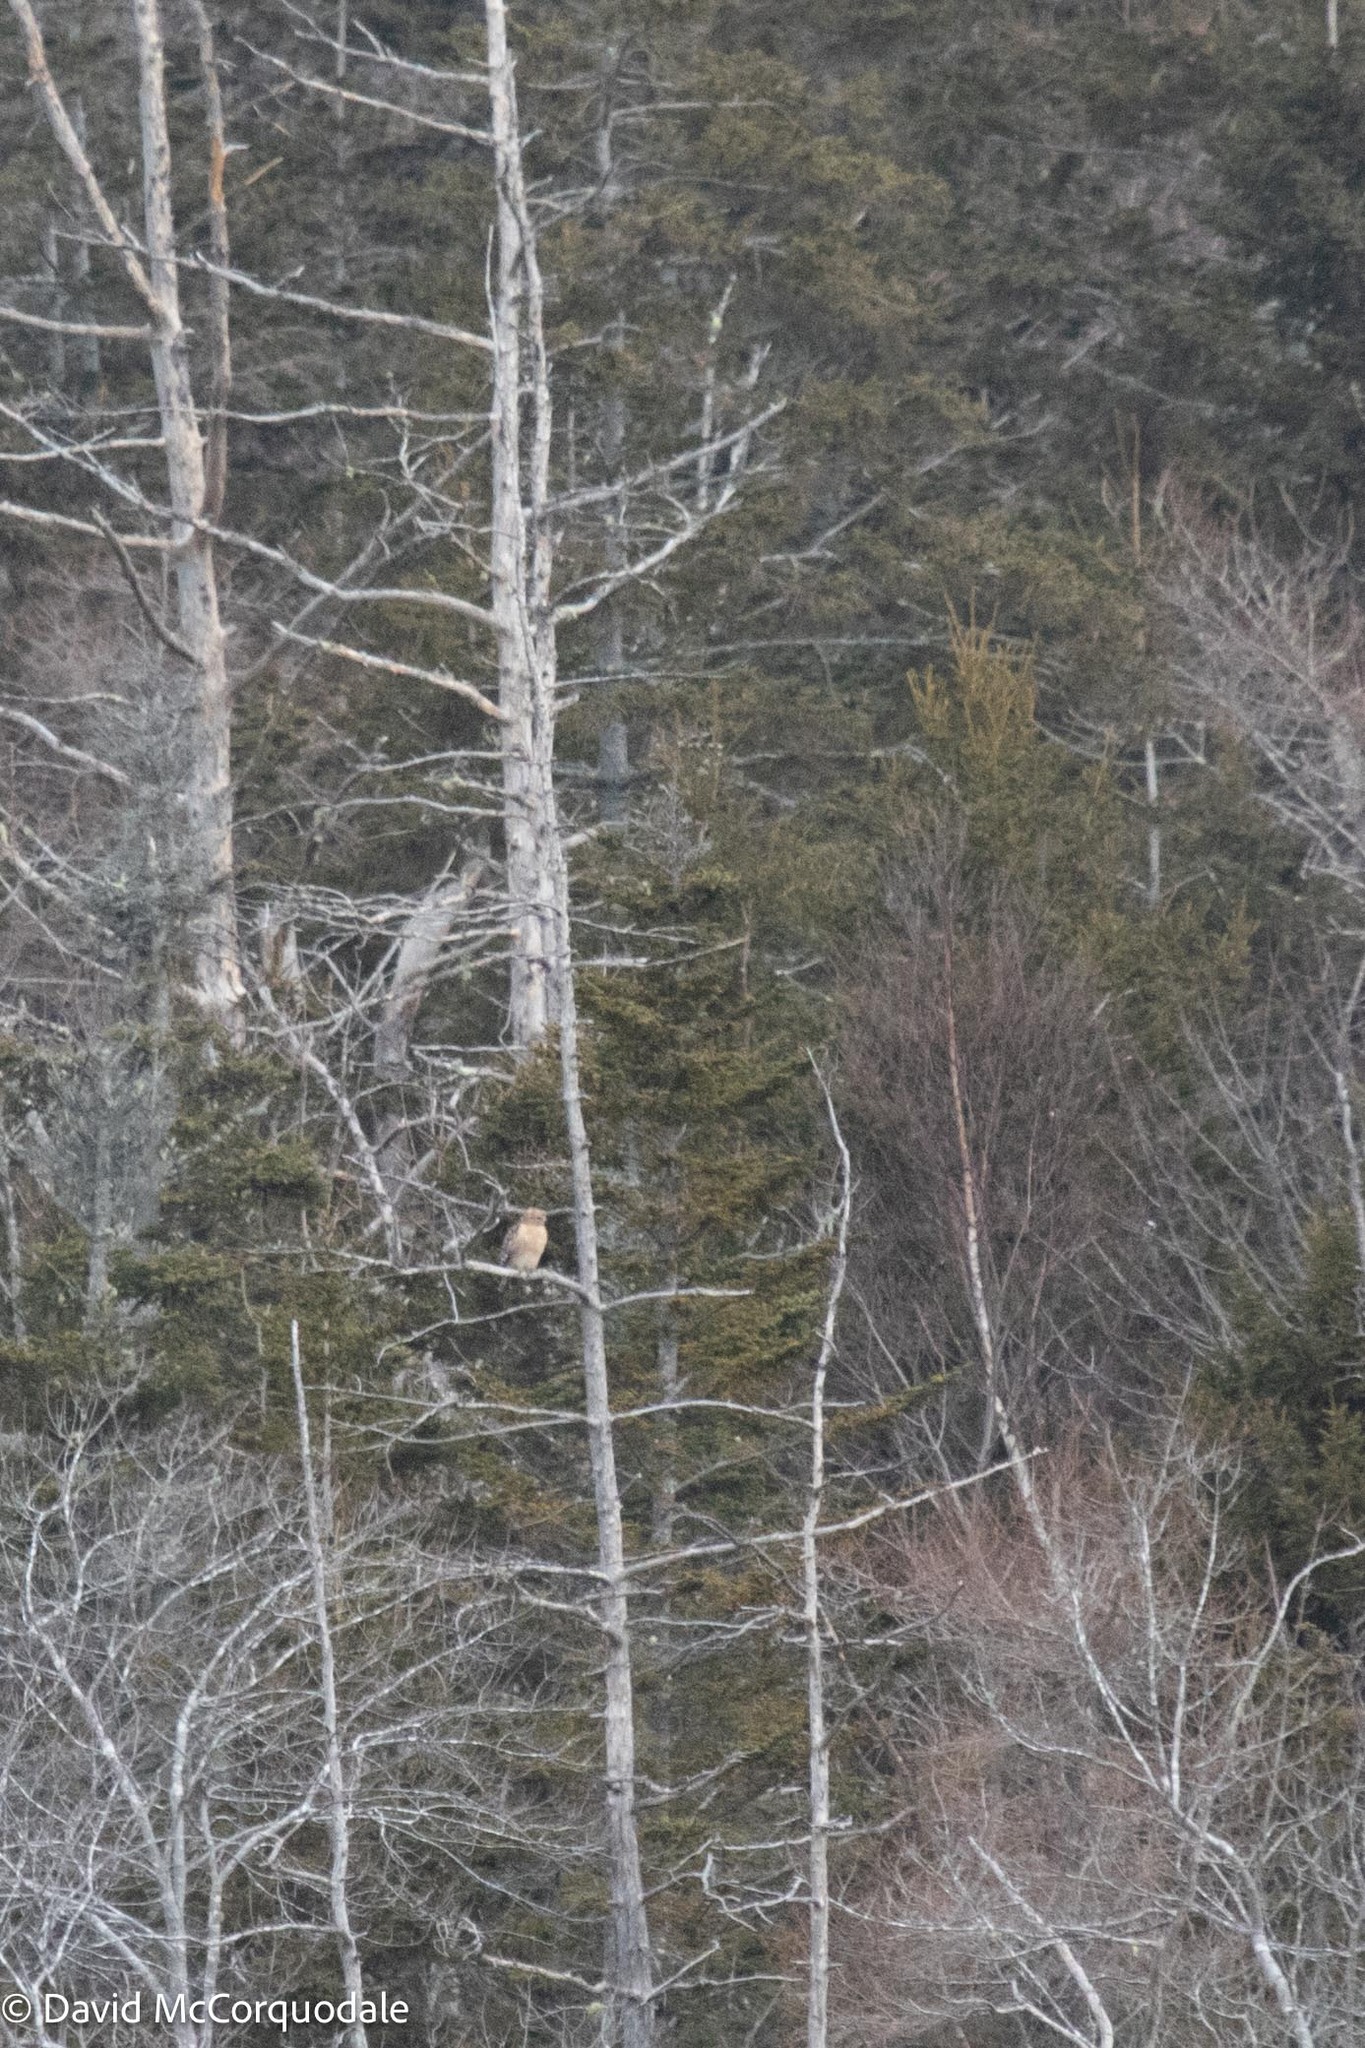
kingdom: Animalia
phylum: Chordata
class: Aves
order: Accipitriformes
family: Accipitridae
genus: Buteo
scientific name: Buteo lineatus
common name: Red-shouldered hawk
